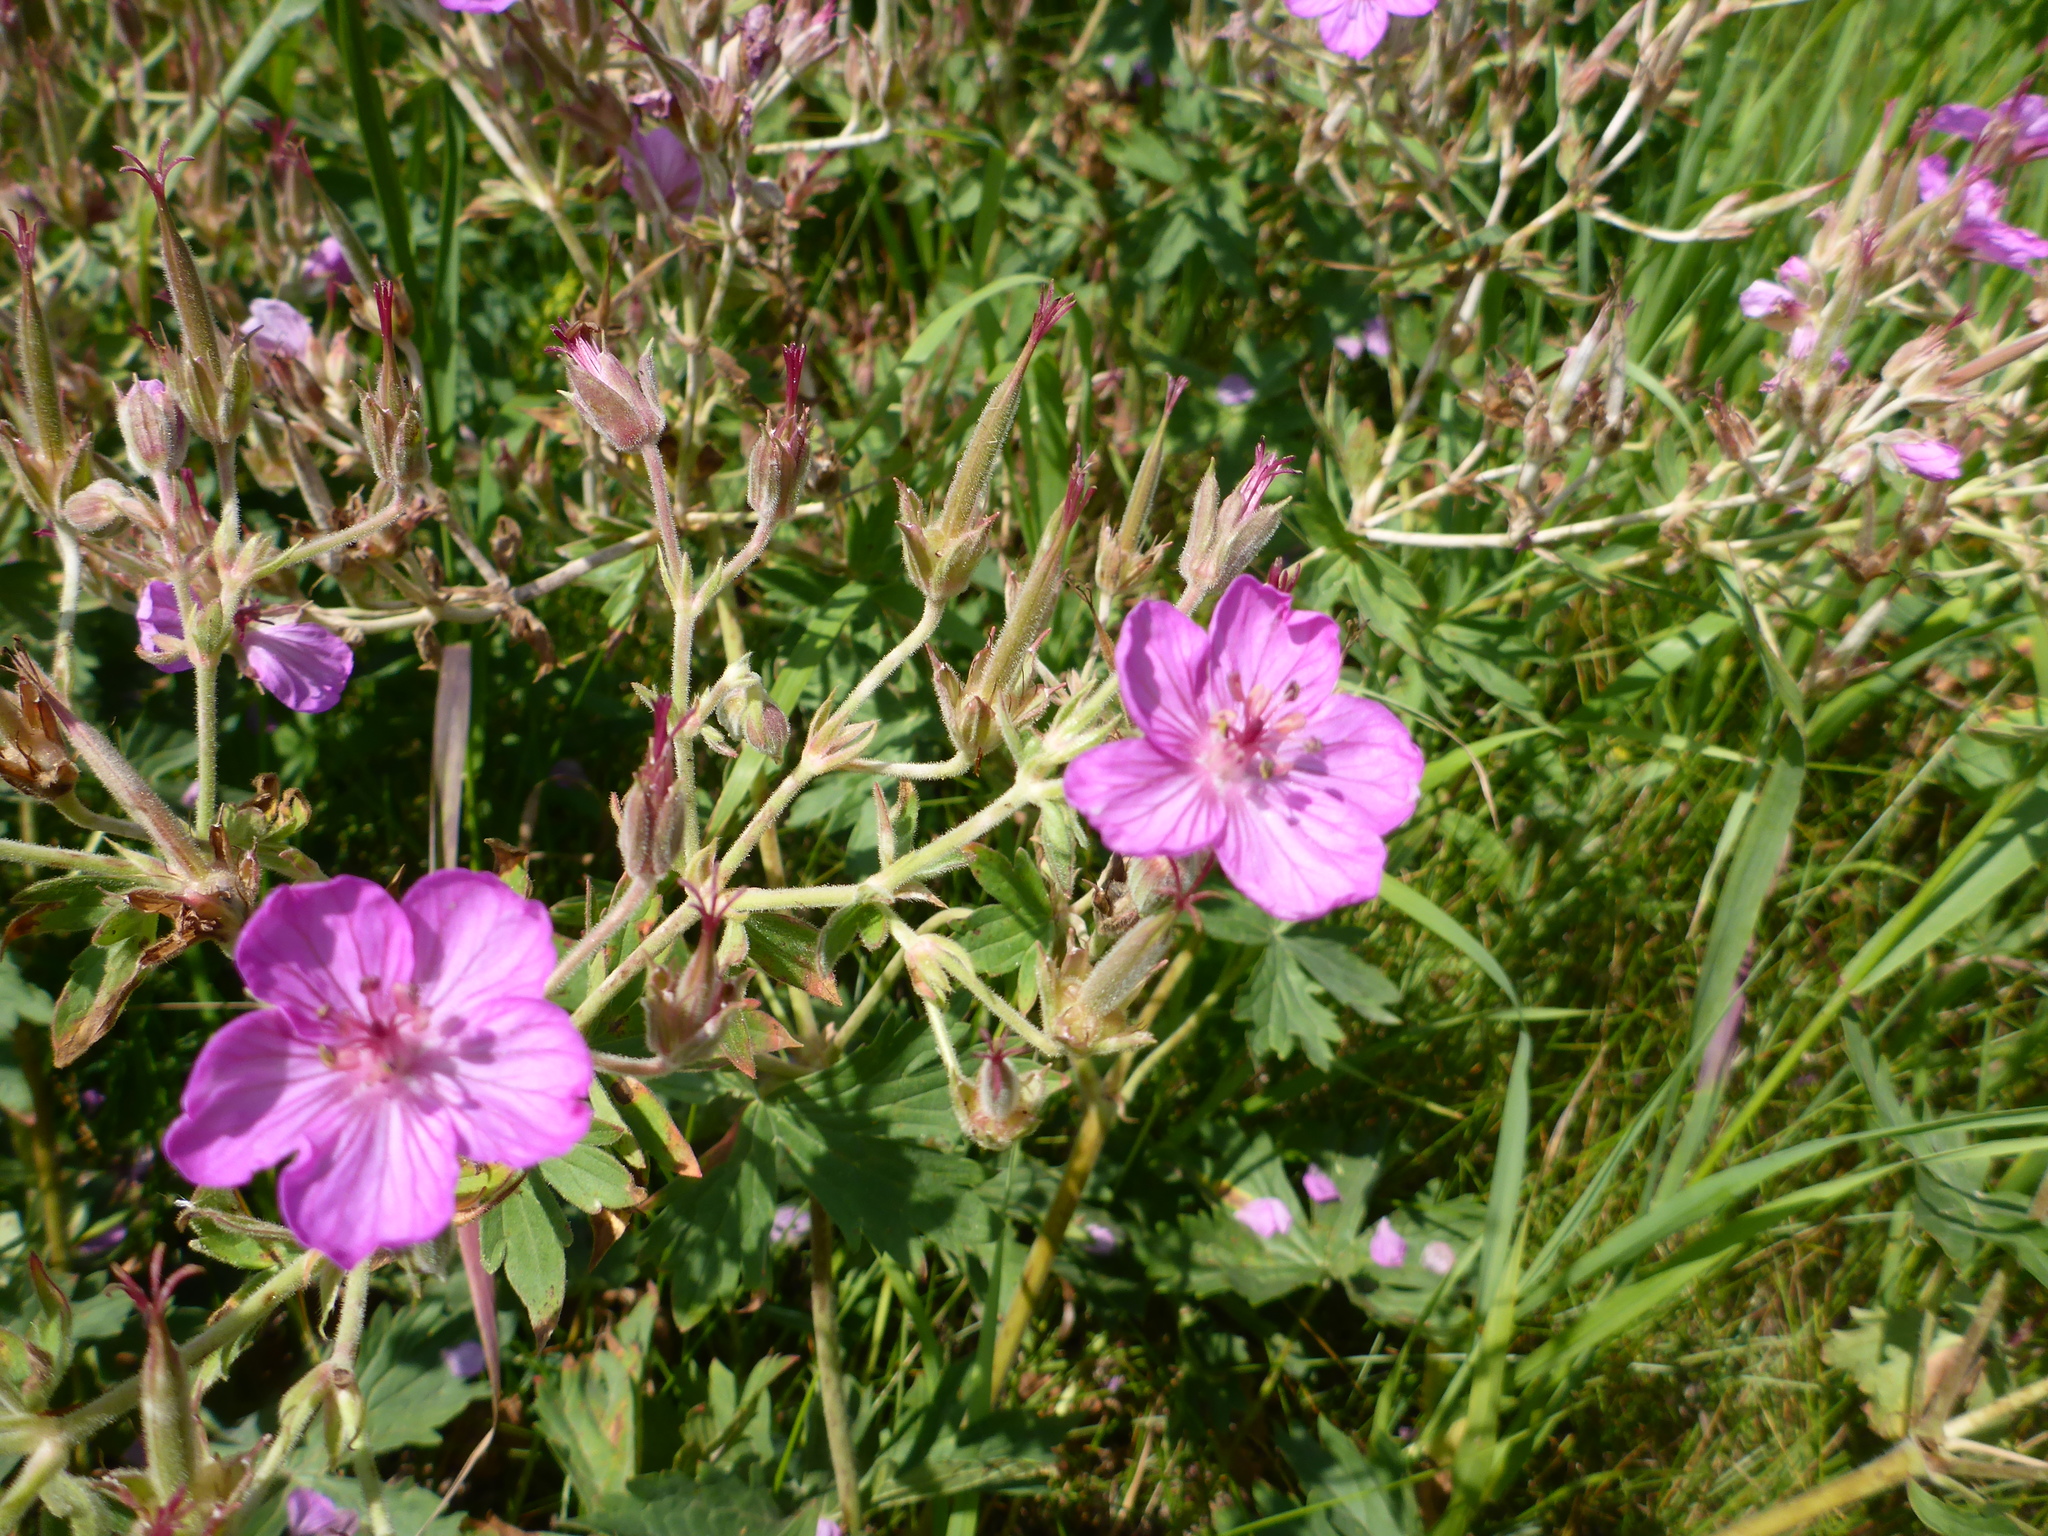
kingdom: Plantae
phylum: Tracheophyta
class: Magnoliopsida
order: Geraniales
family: Geraniaceae
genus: Geranium
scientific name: Geranium viscosissimum
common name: Purple geranium
